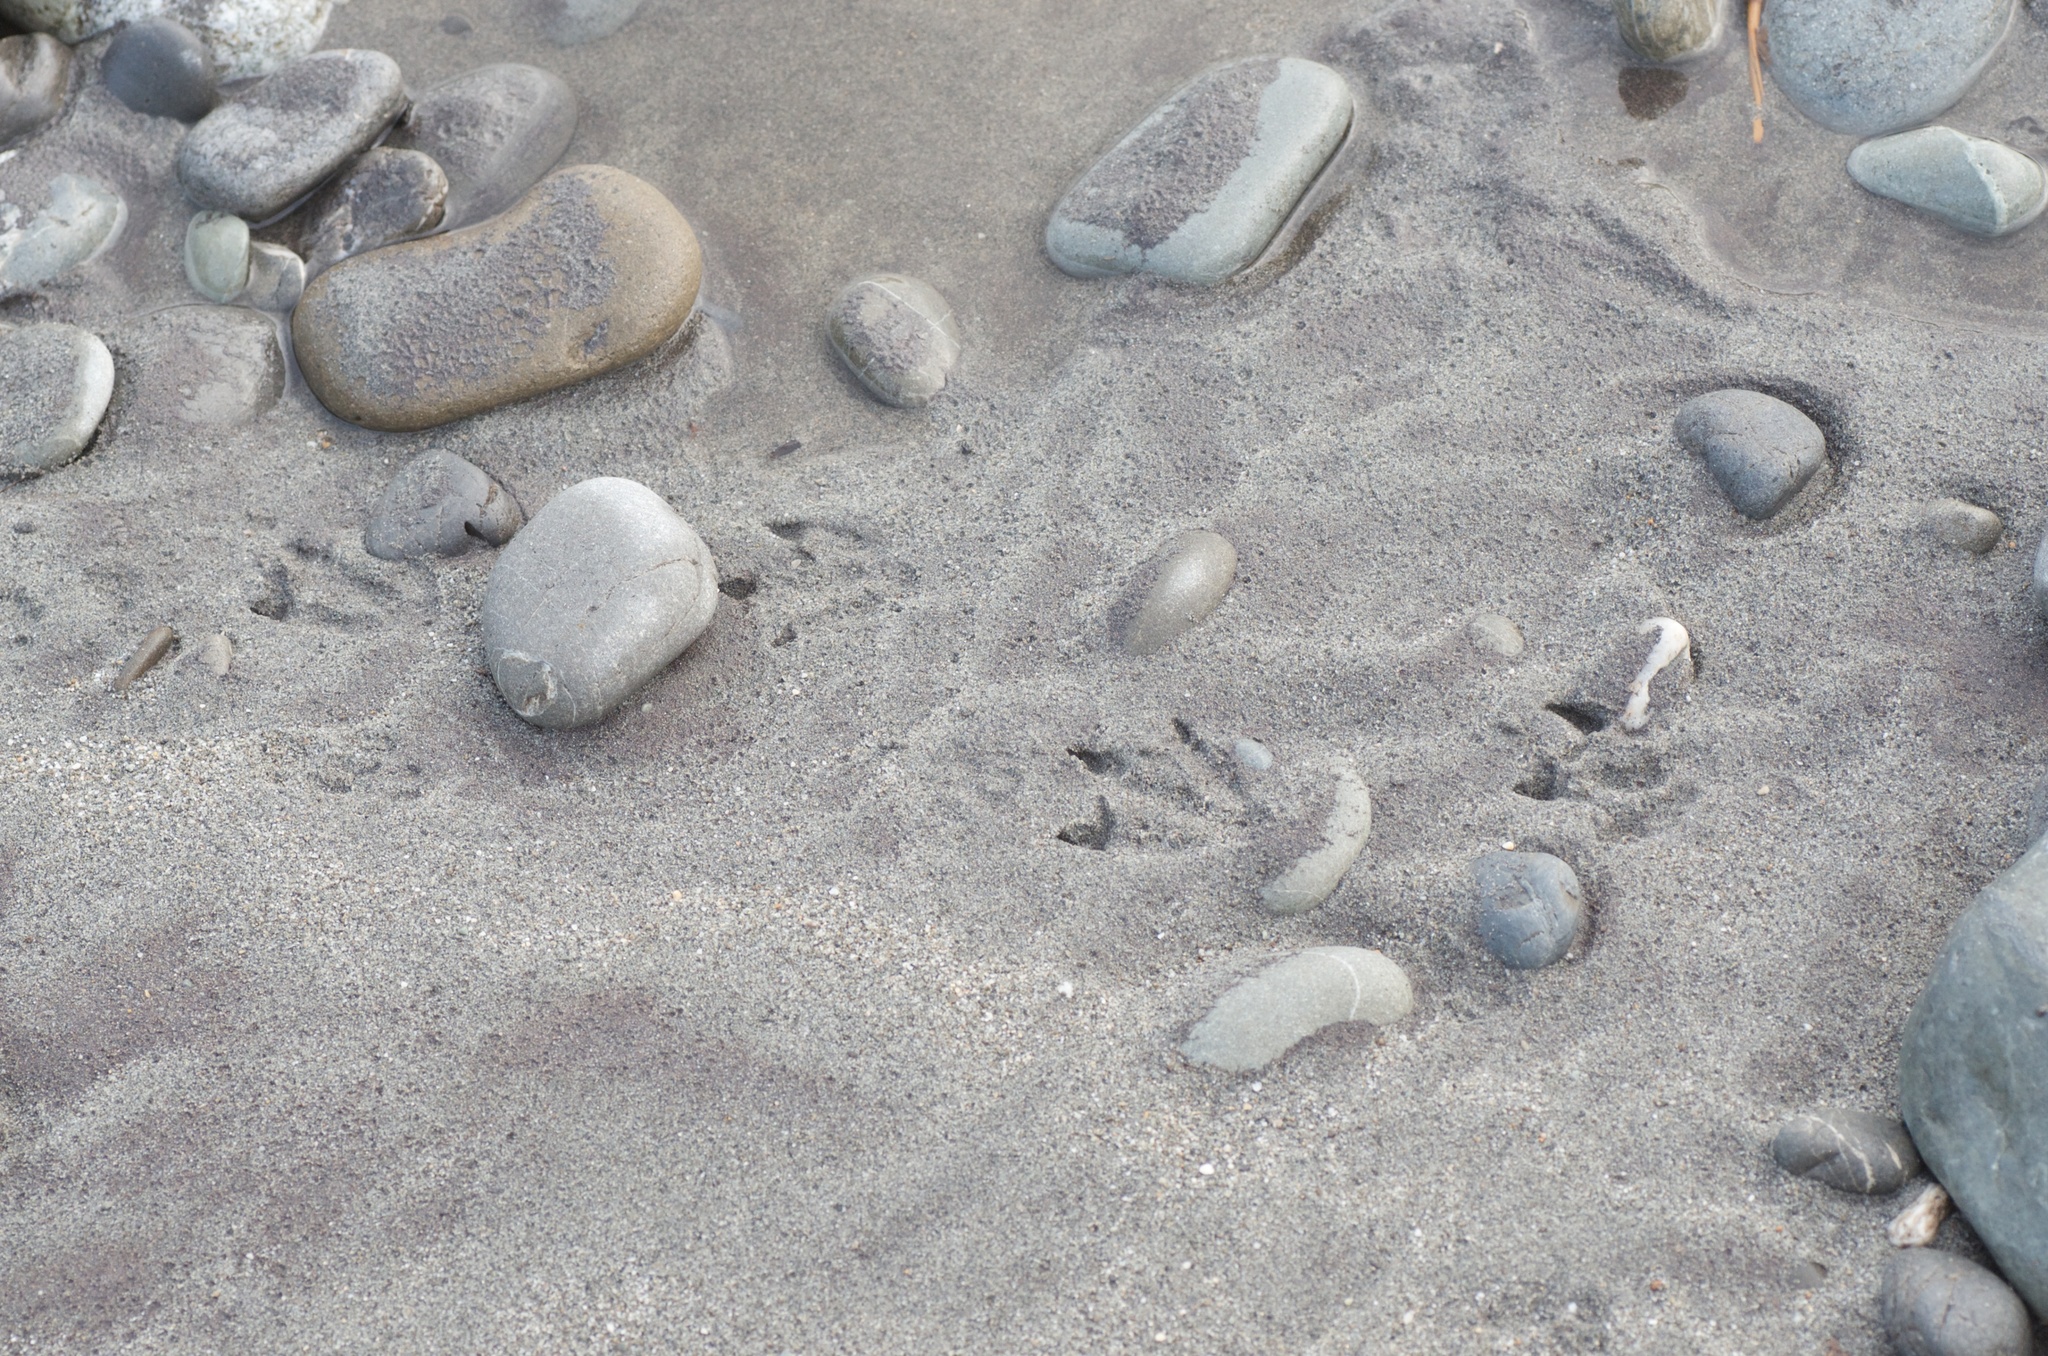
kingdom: Animalia
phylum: Chordata
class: Aves
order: Sphenisciformes
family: Spheniscidae
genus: Eudyptula
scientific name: Eudyptula minor
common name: Little penguin
